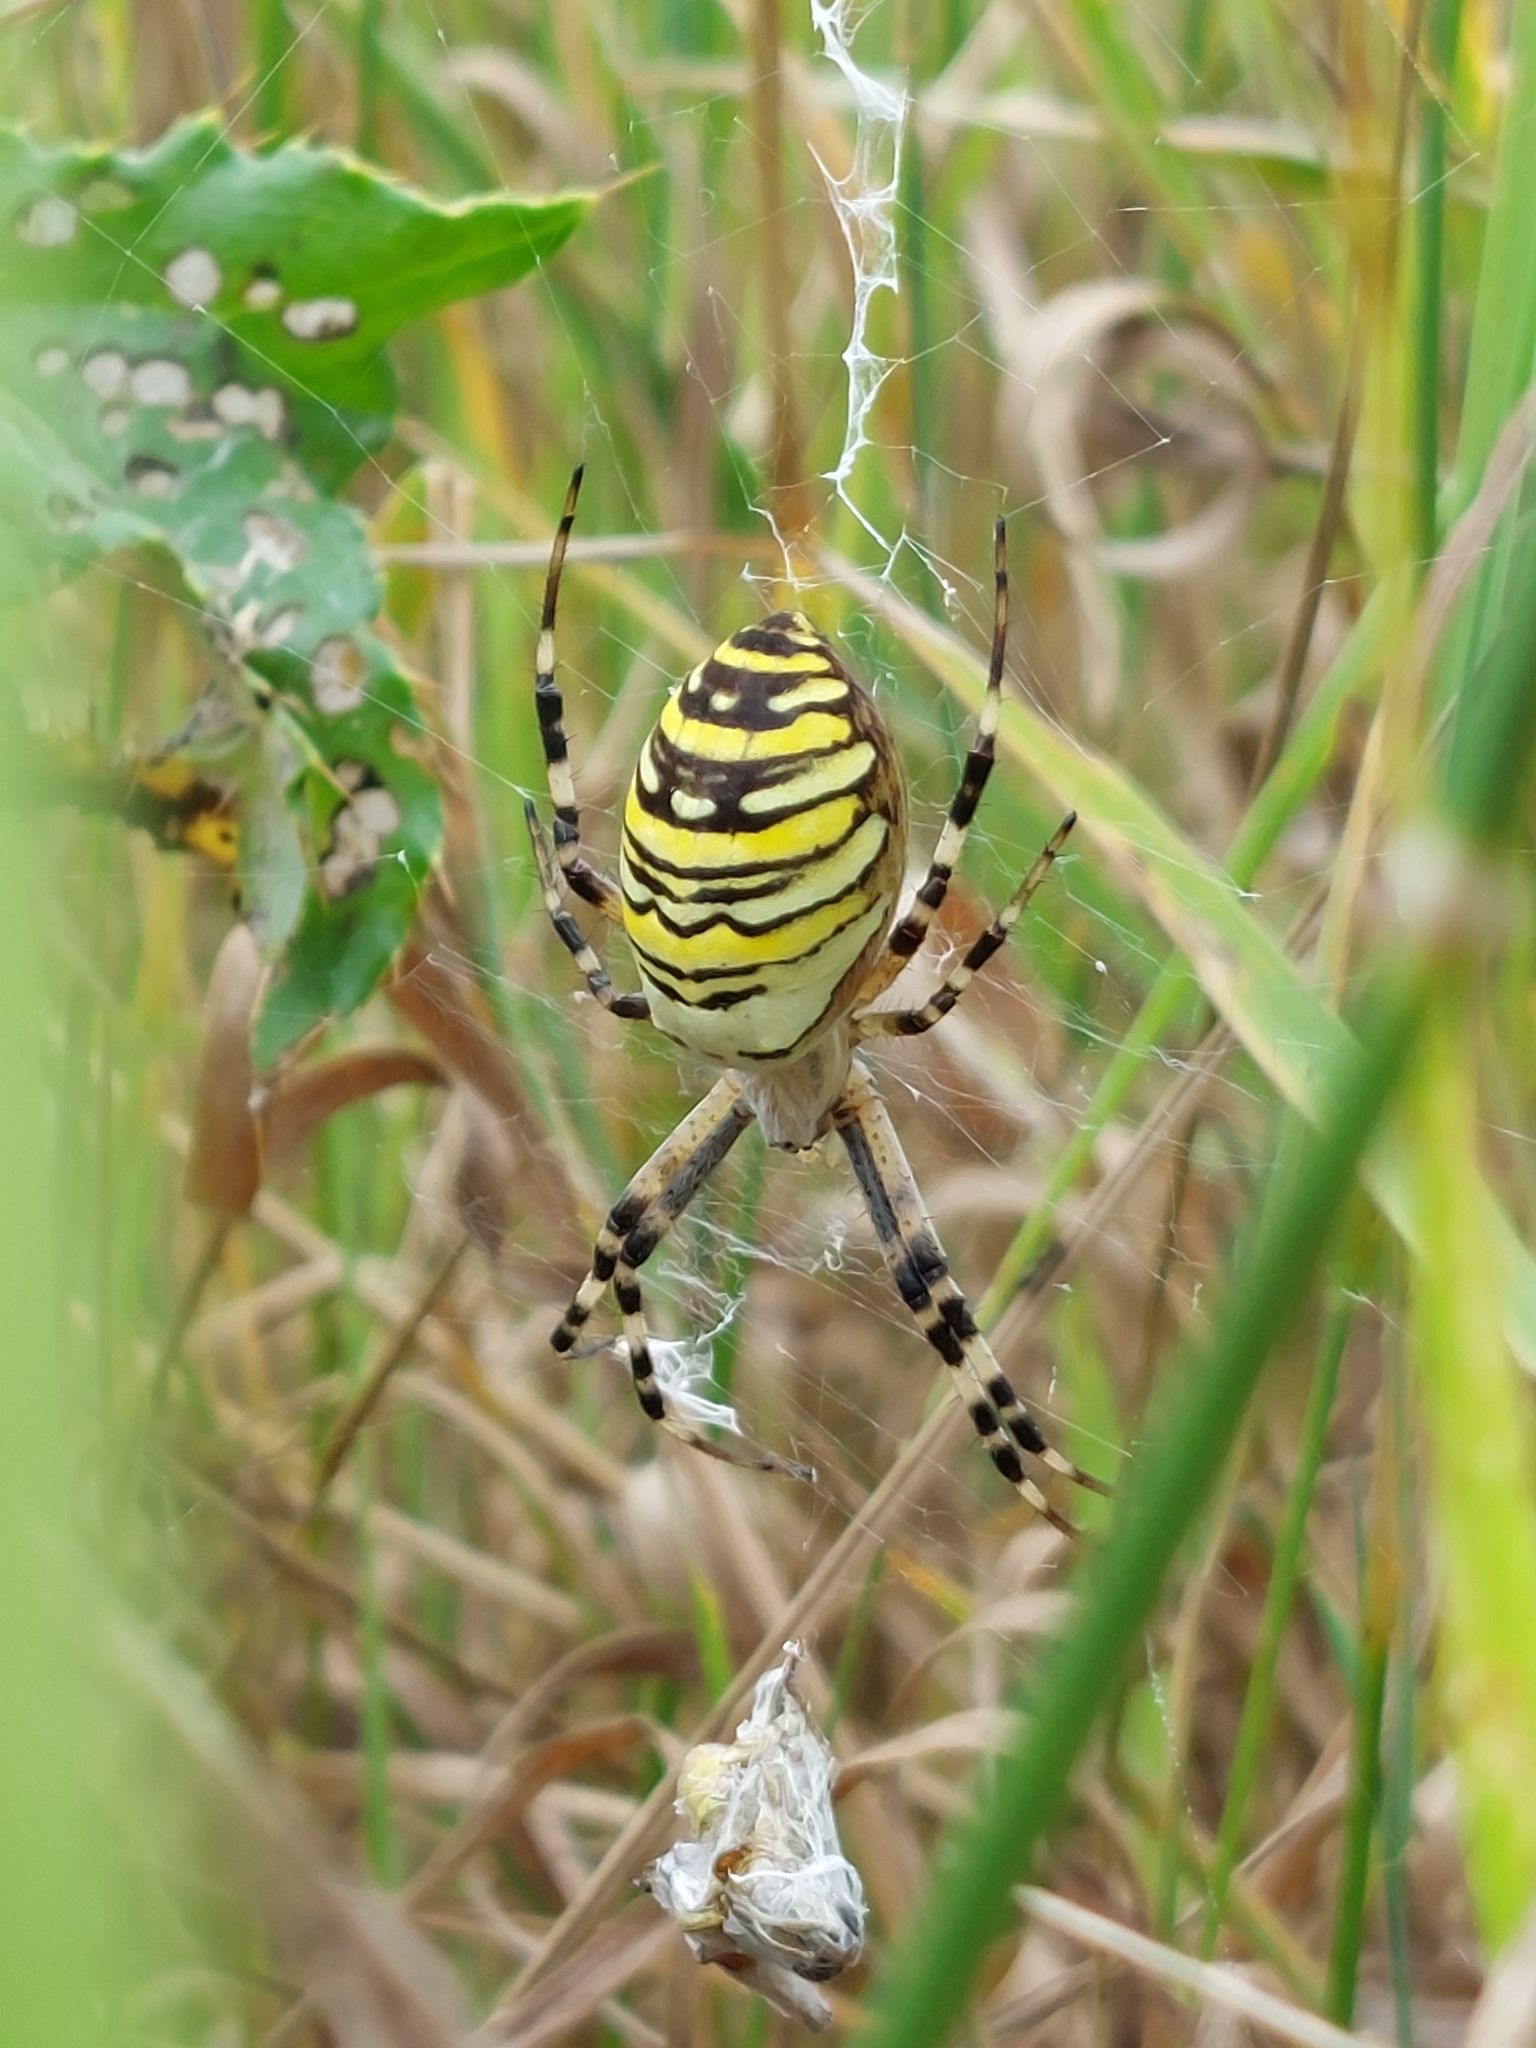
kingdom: Animalia
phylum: Arthropoda
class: Arachnida
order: Araneae
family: Araneidae
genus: Argiope
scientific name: Argiope bruennichi
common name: Wasp spider
